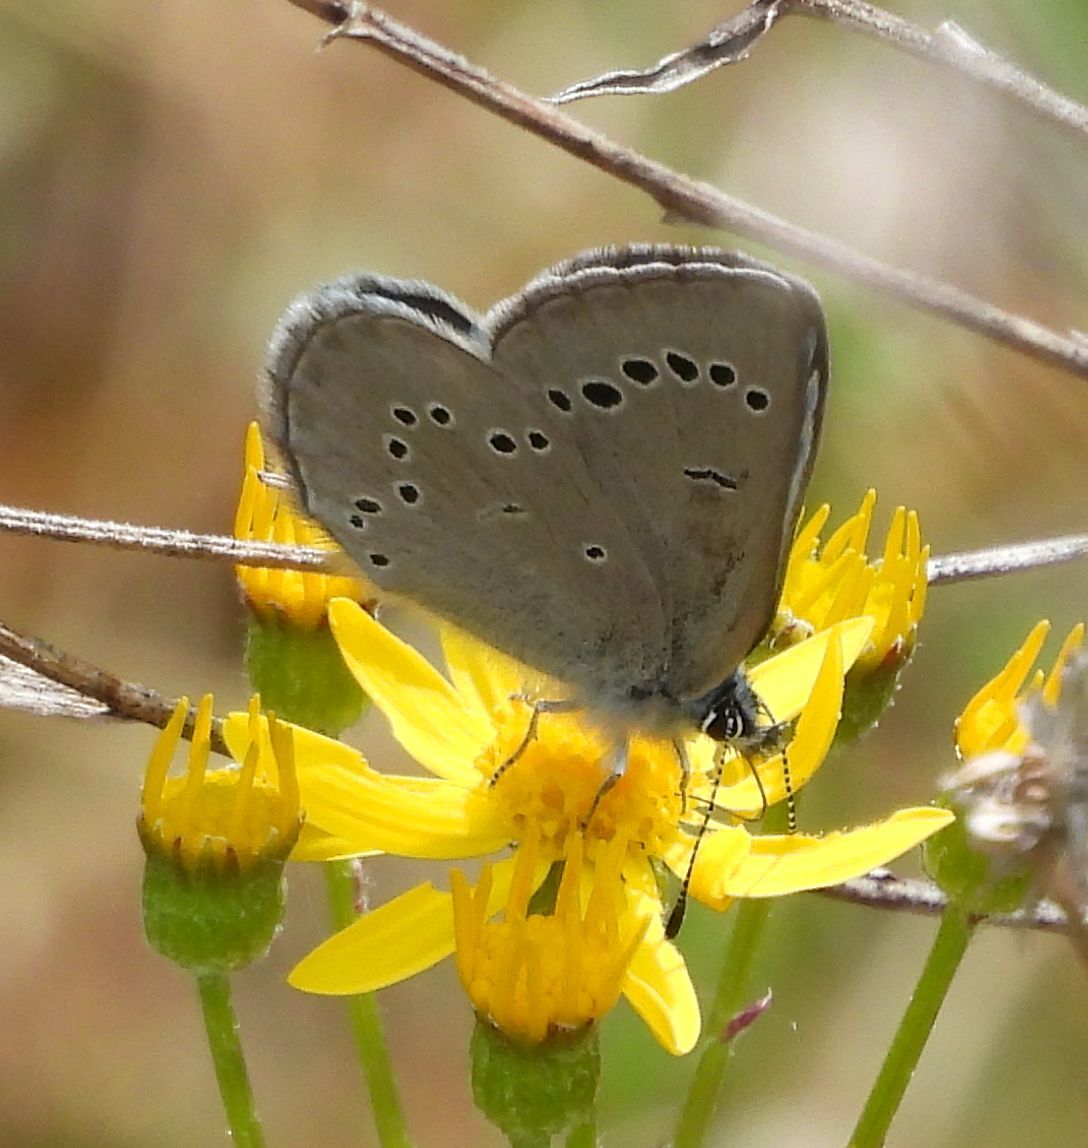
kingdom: Animalia
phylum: Arthropoda
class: Insecta
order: Lepidoptera
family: Lycaenidae
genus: Glaucopsyche
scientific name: Glaucopsyche lygdamus
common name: Silvery blue
